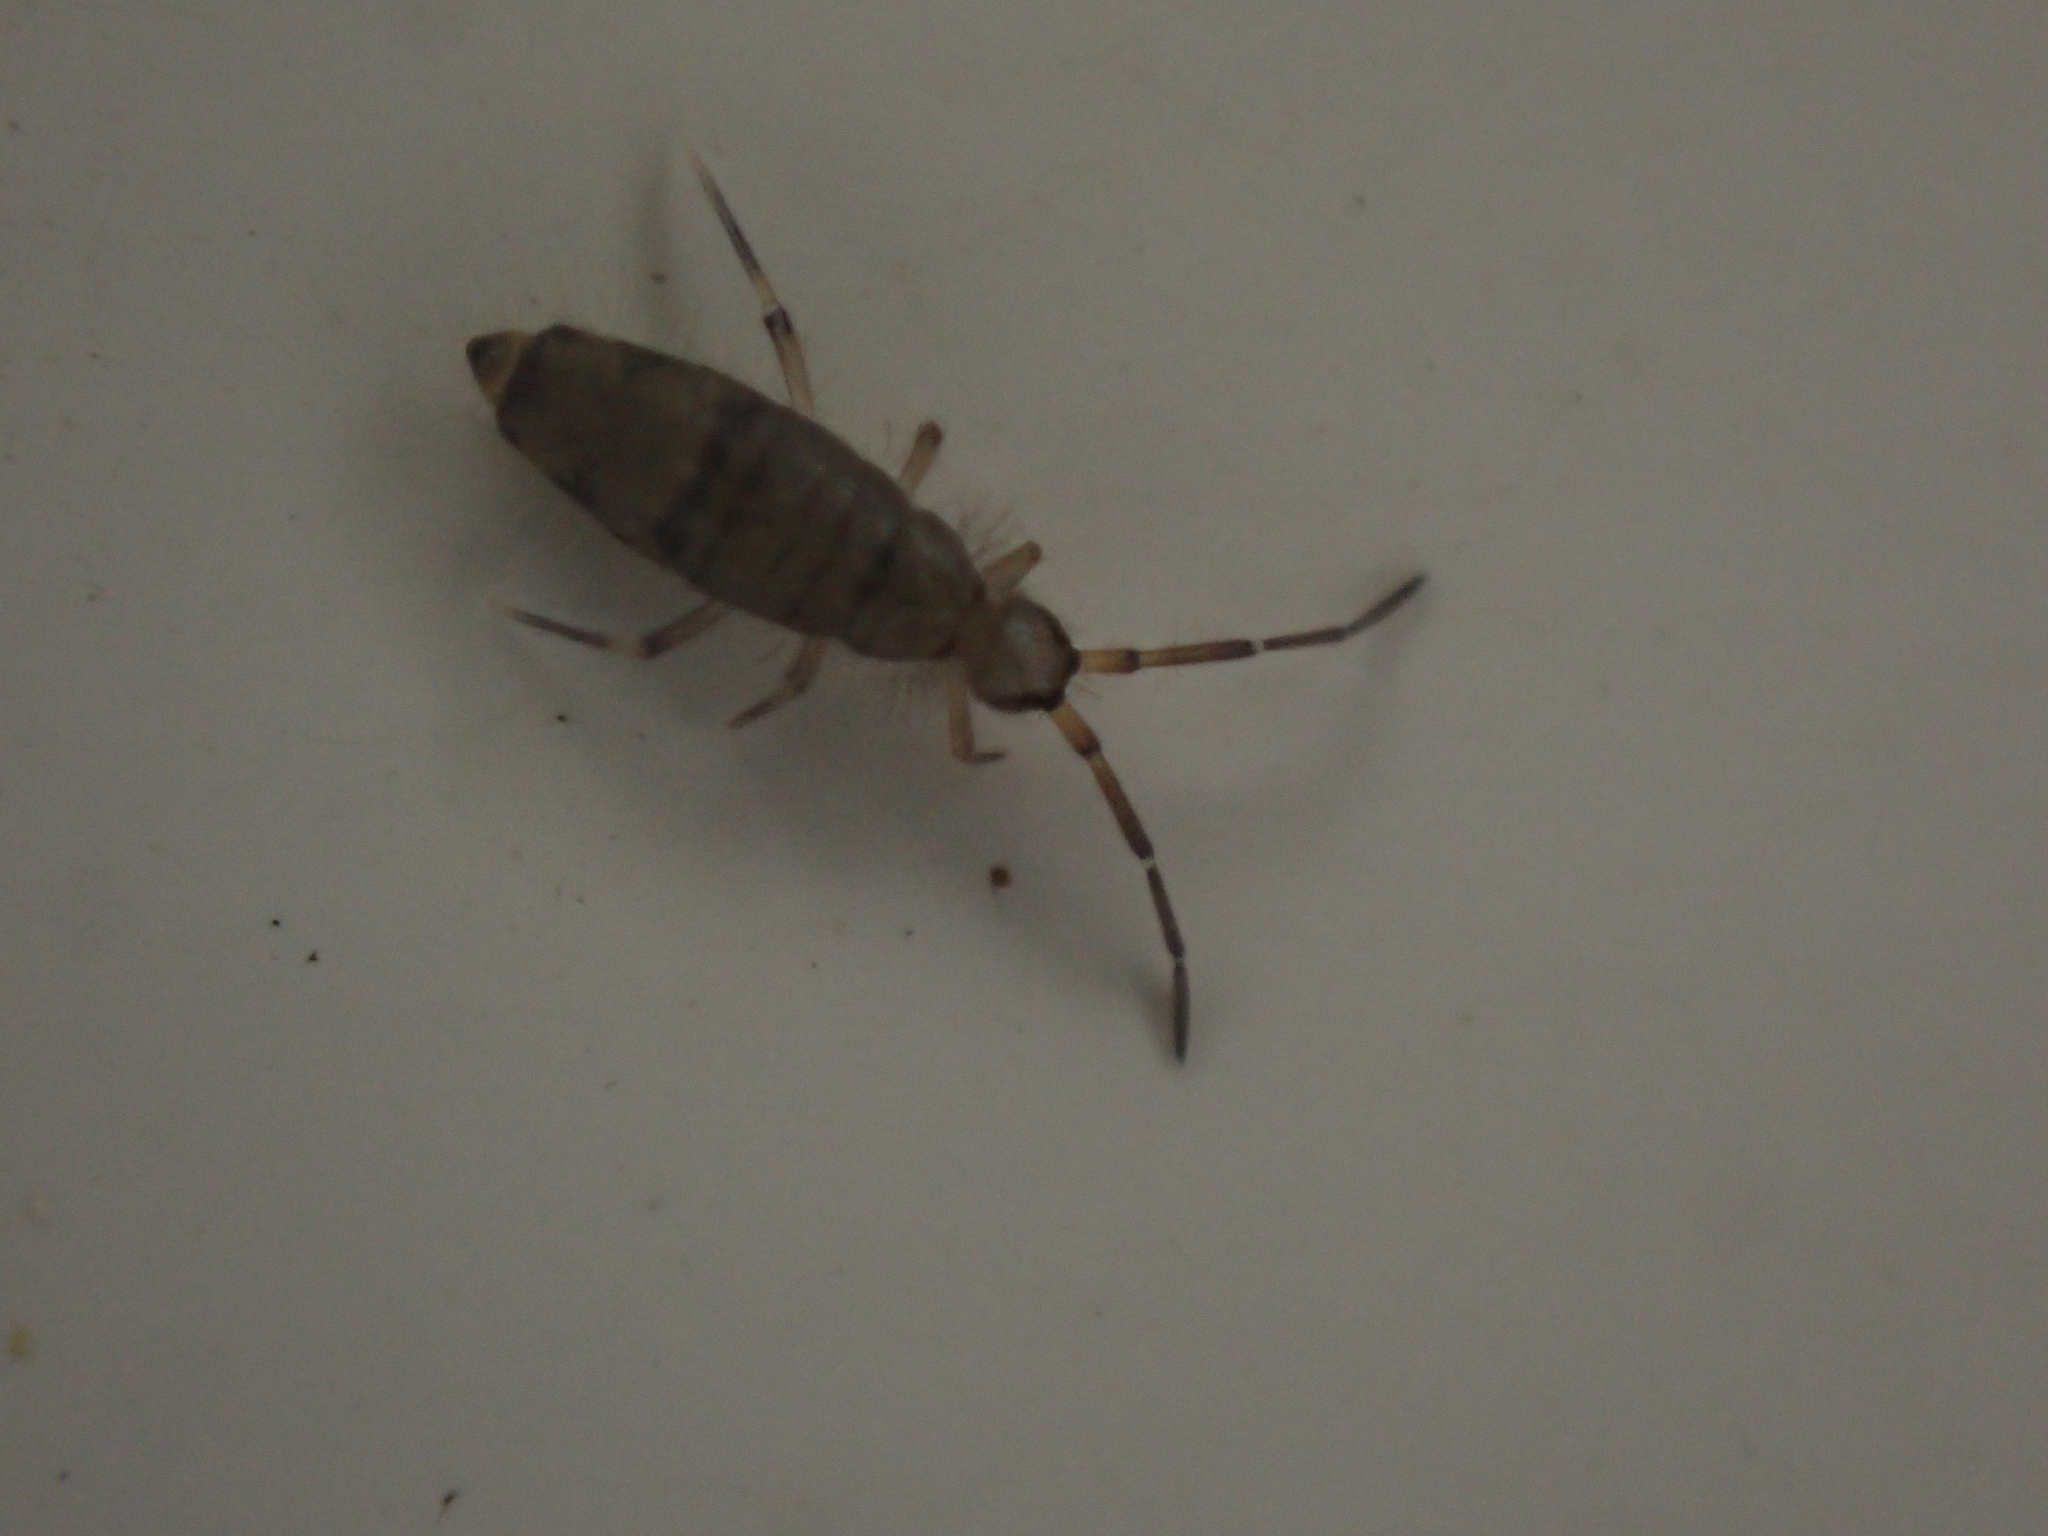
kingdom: Animalia
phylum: Arthropoda
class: Collembola
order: Entomobryomorpha
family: Entomobryidae
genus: Willowsia
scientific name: Willowsia nigromaculata
